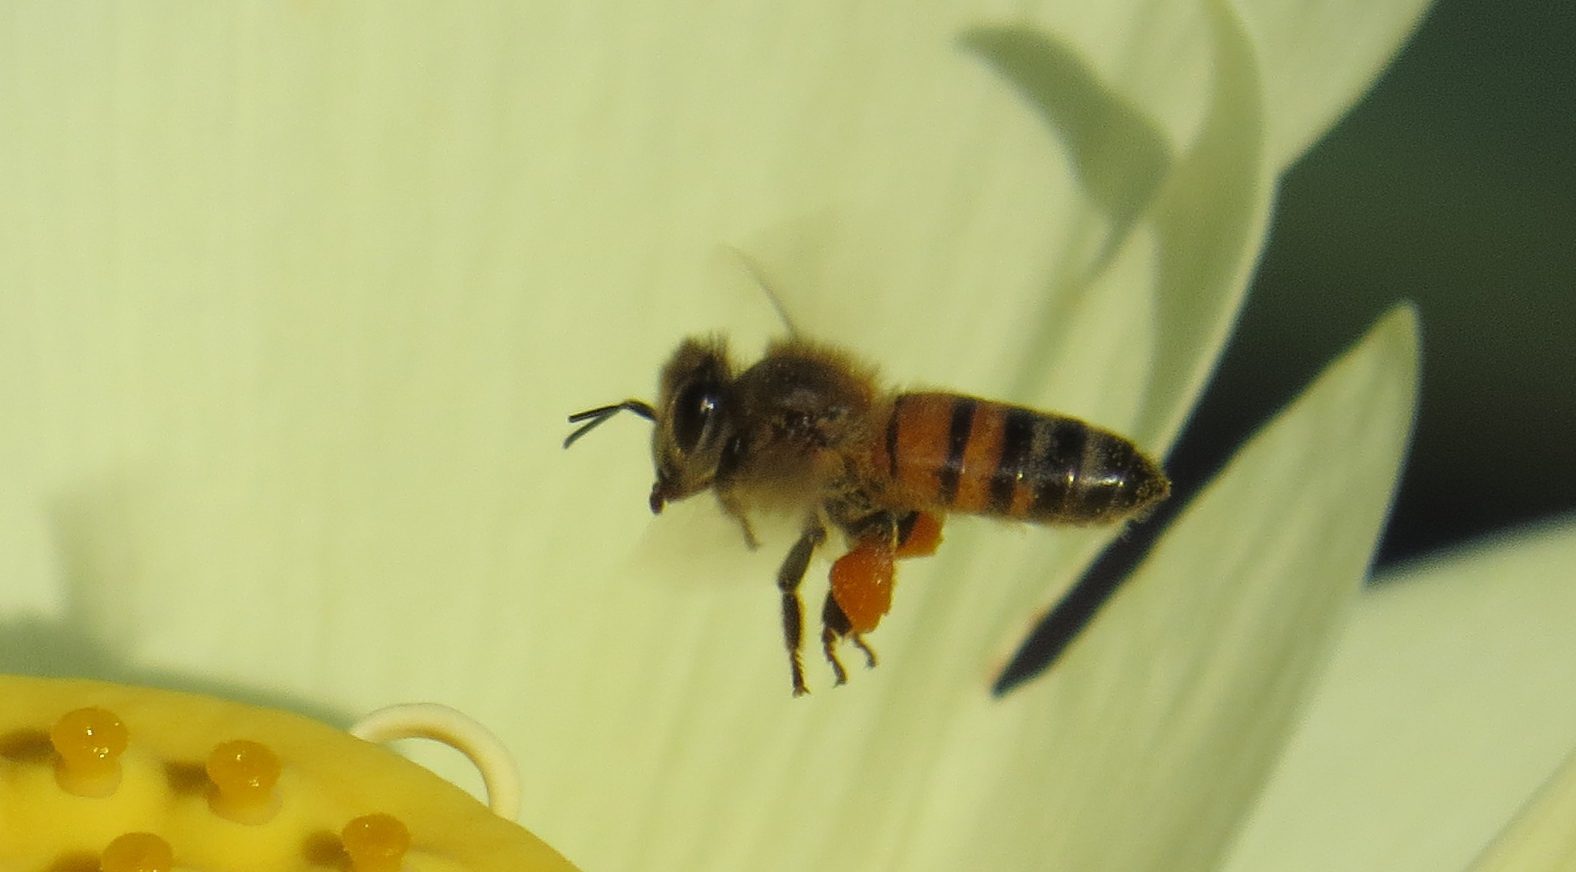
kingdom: Animalia
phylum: Arthropoda
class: Insecta
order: Hymenoptera
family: Apidae
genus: Apis
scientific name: Apis mellifera
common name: Honey bee
